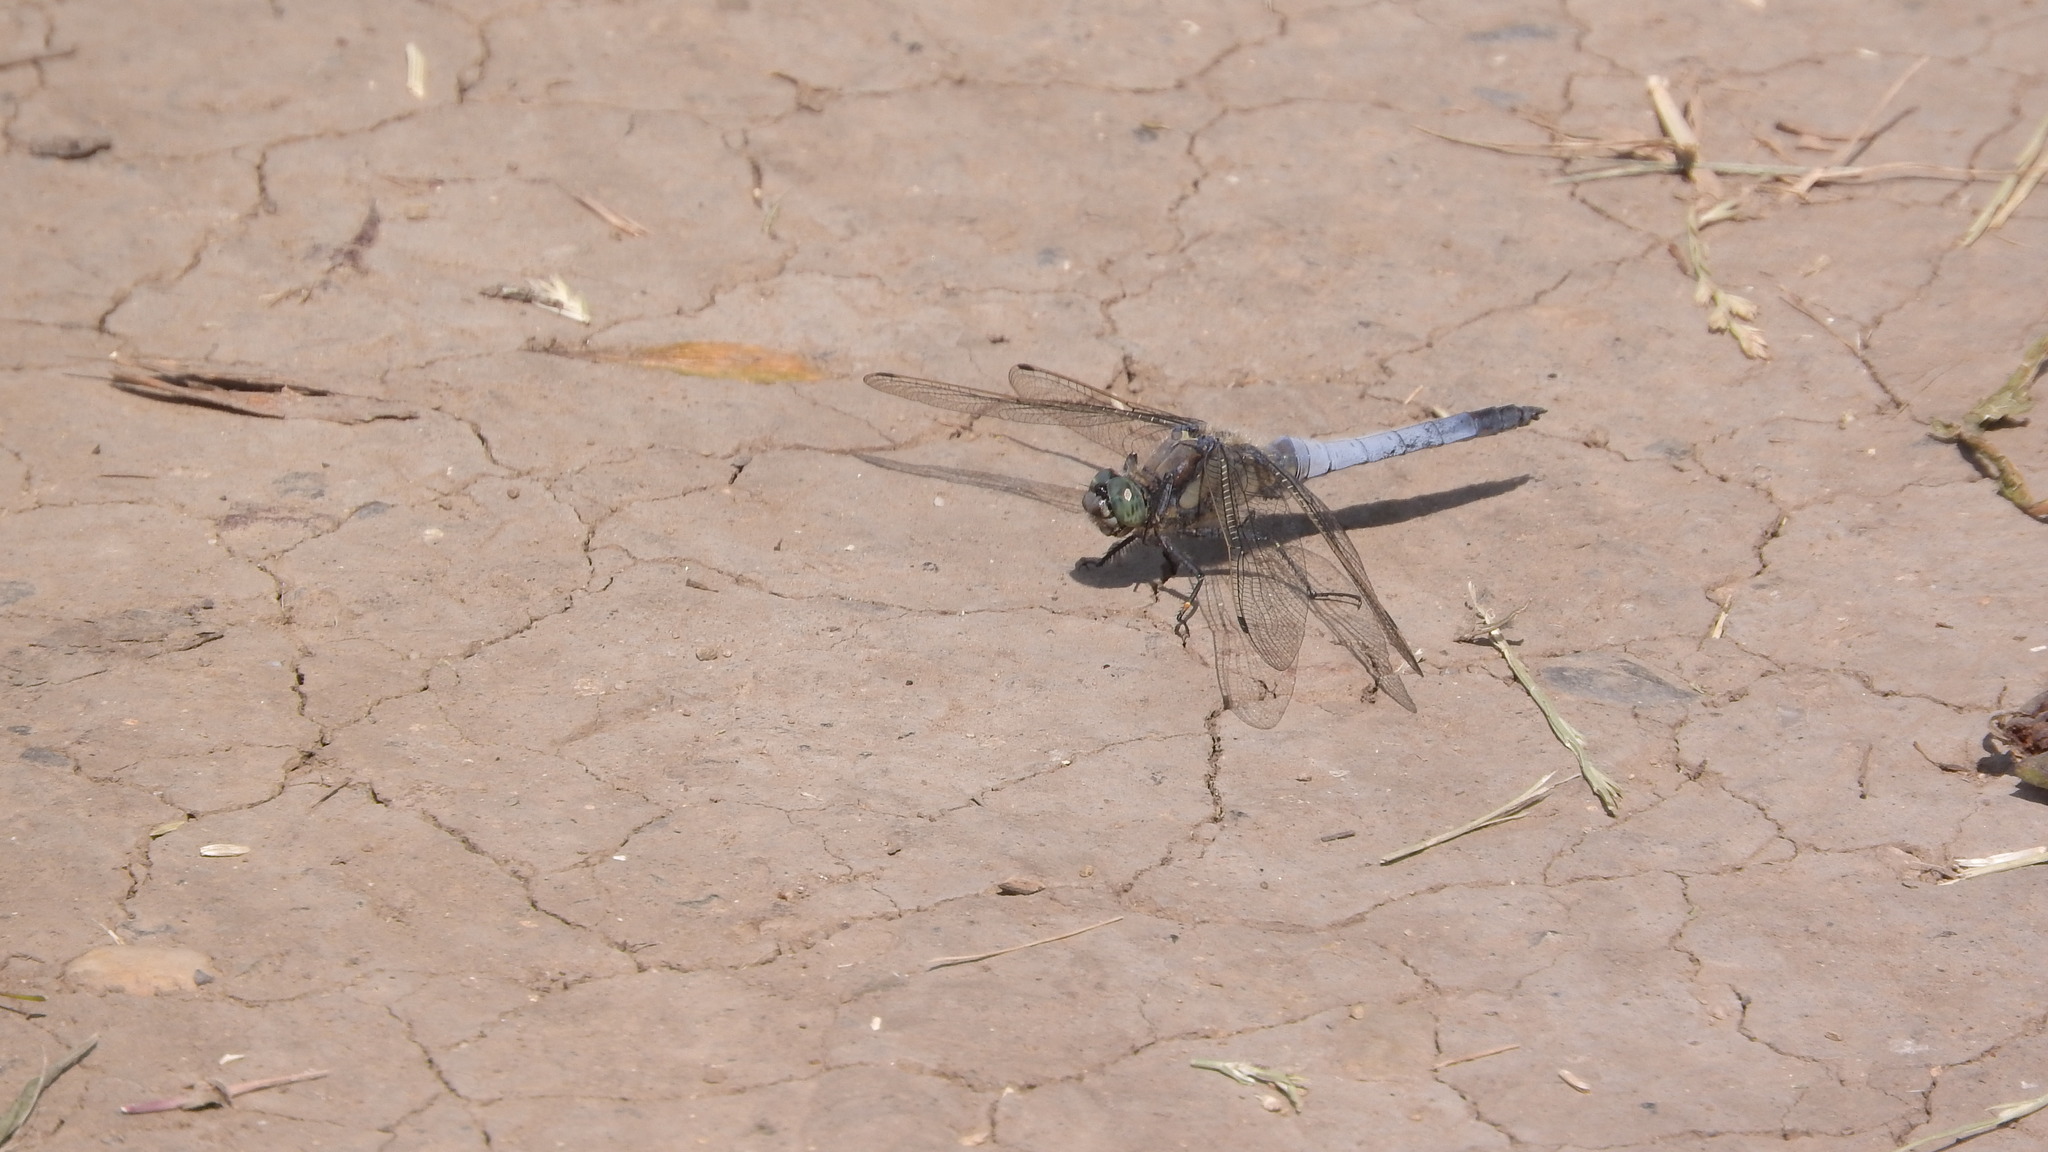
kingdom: Animalia
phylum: Arthropoda
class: Insecta
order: Odonata
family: Libellulidae
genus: Orthetrum
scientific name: Orthetrum cancellatum
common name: Black-tailed skimmer
